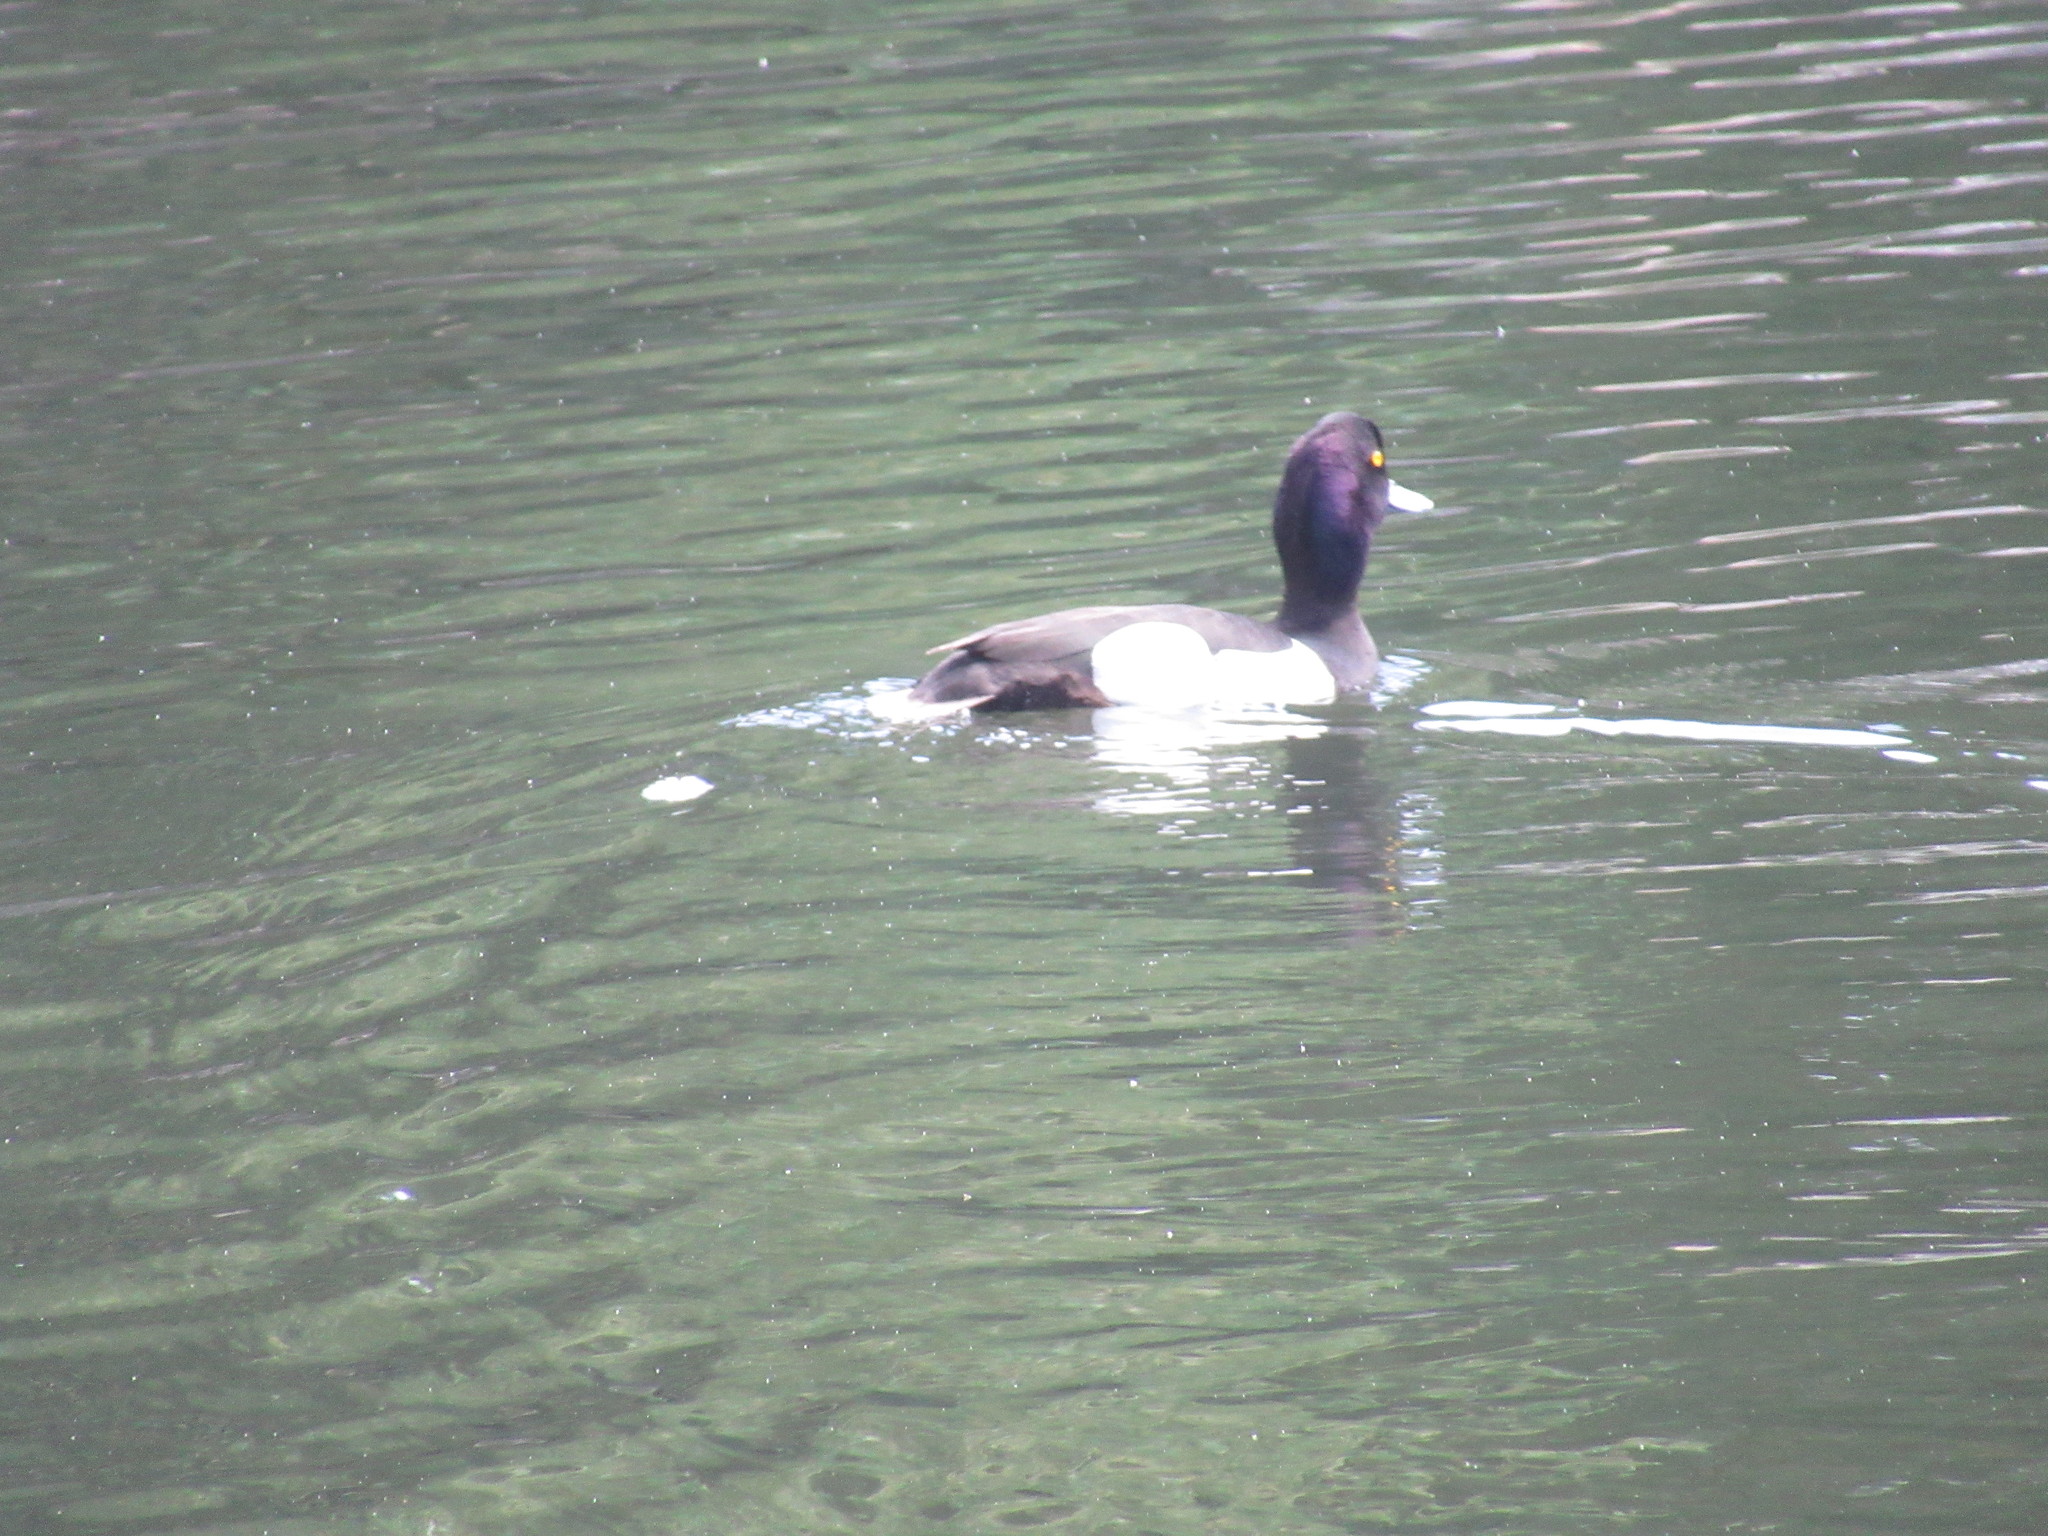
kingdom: Animalia
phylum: Chordata
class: Aves
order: Anseriformes
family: Anatidae
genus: Aythya
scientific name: Aythya fuligula
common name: Tufted duck
